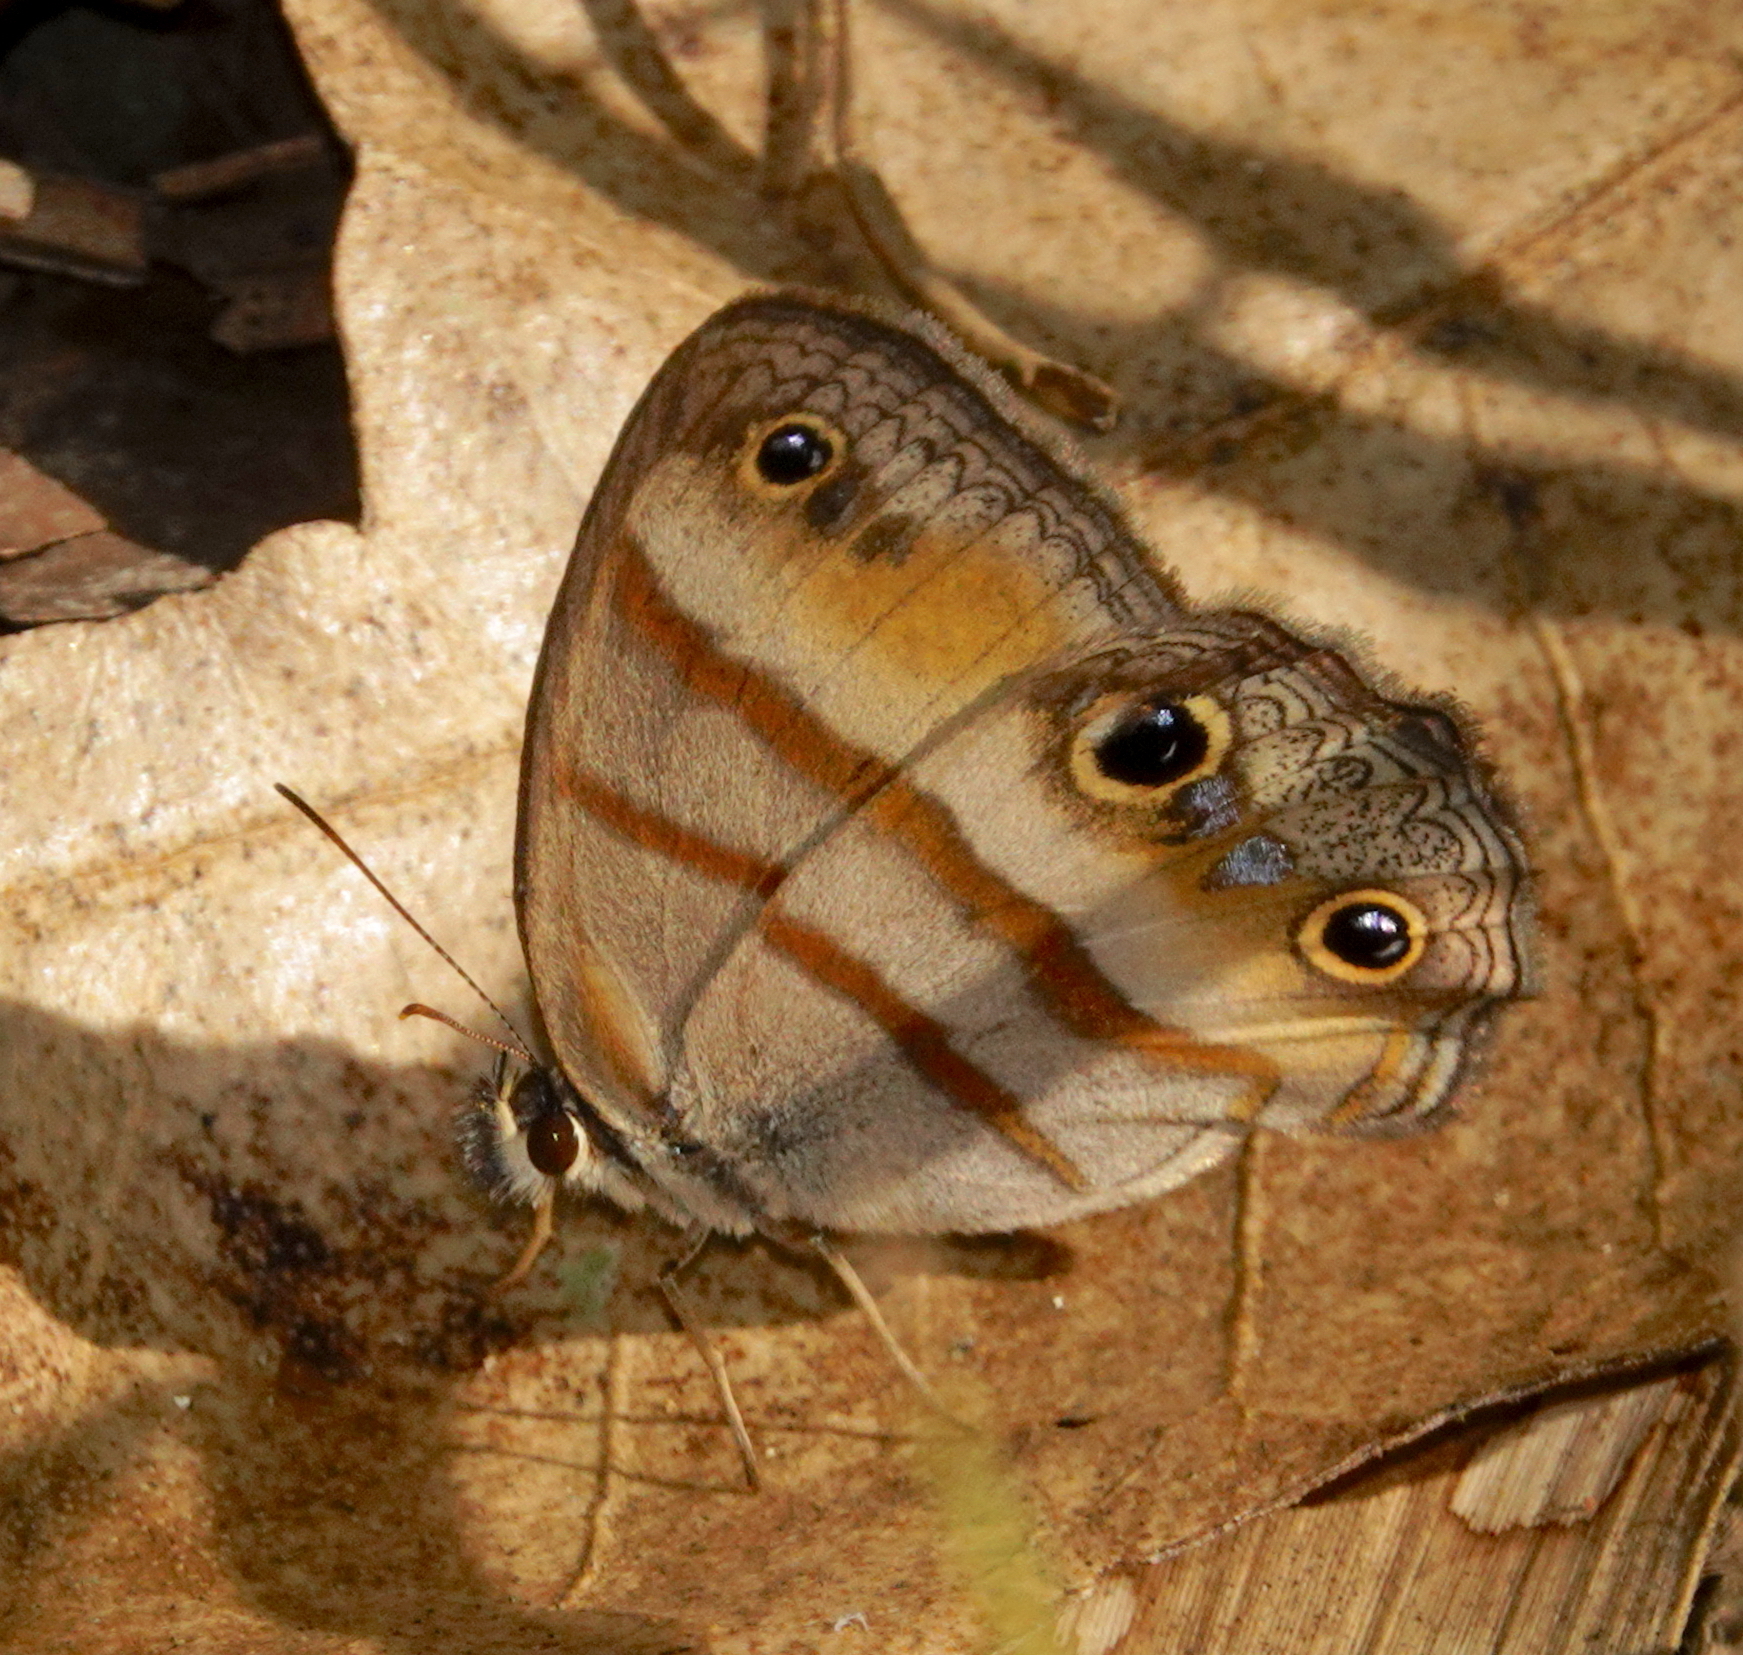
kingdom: Animalia
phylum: Arthropoda
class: Insecta
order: Lepidoptera
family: Nymphalidae
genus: Argyreuptychia
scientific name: Argyreuptychia penelope
